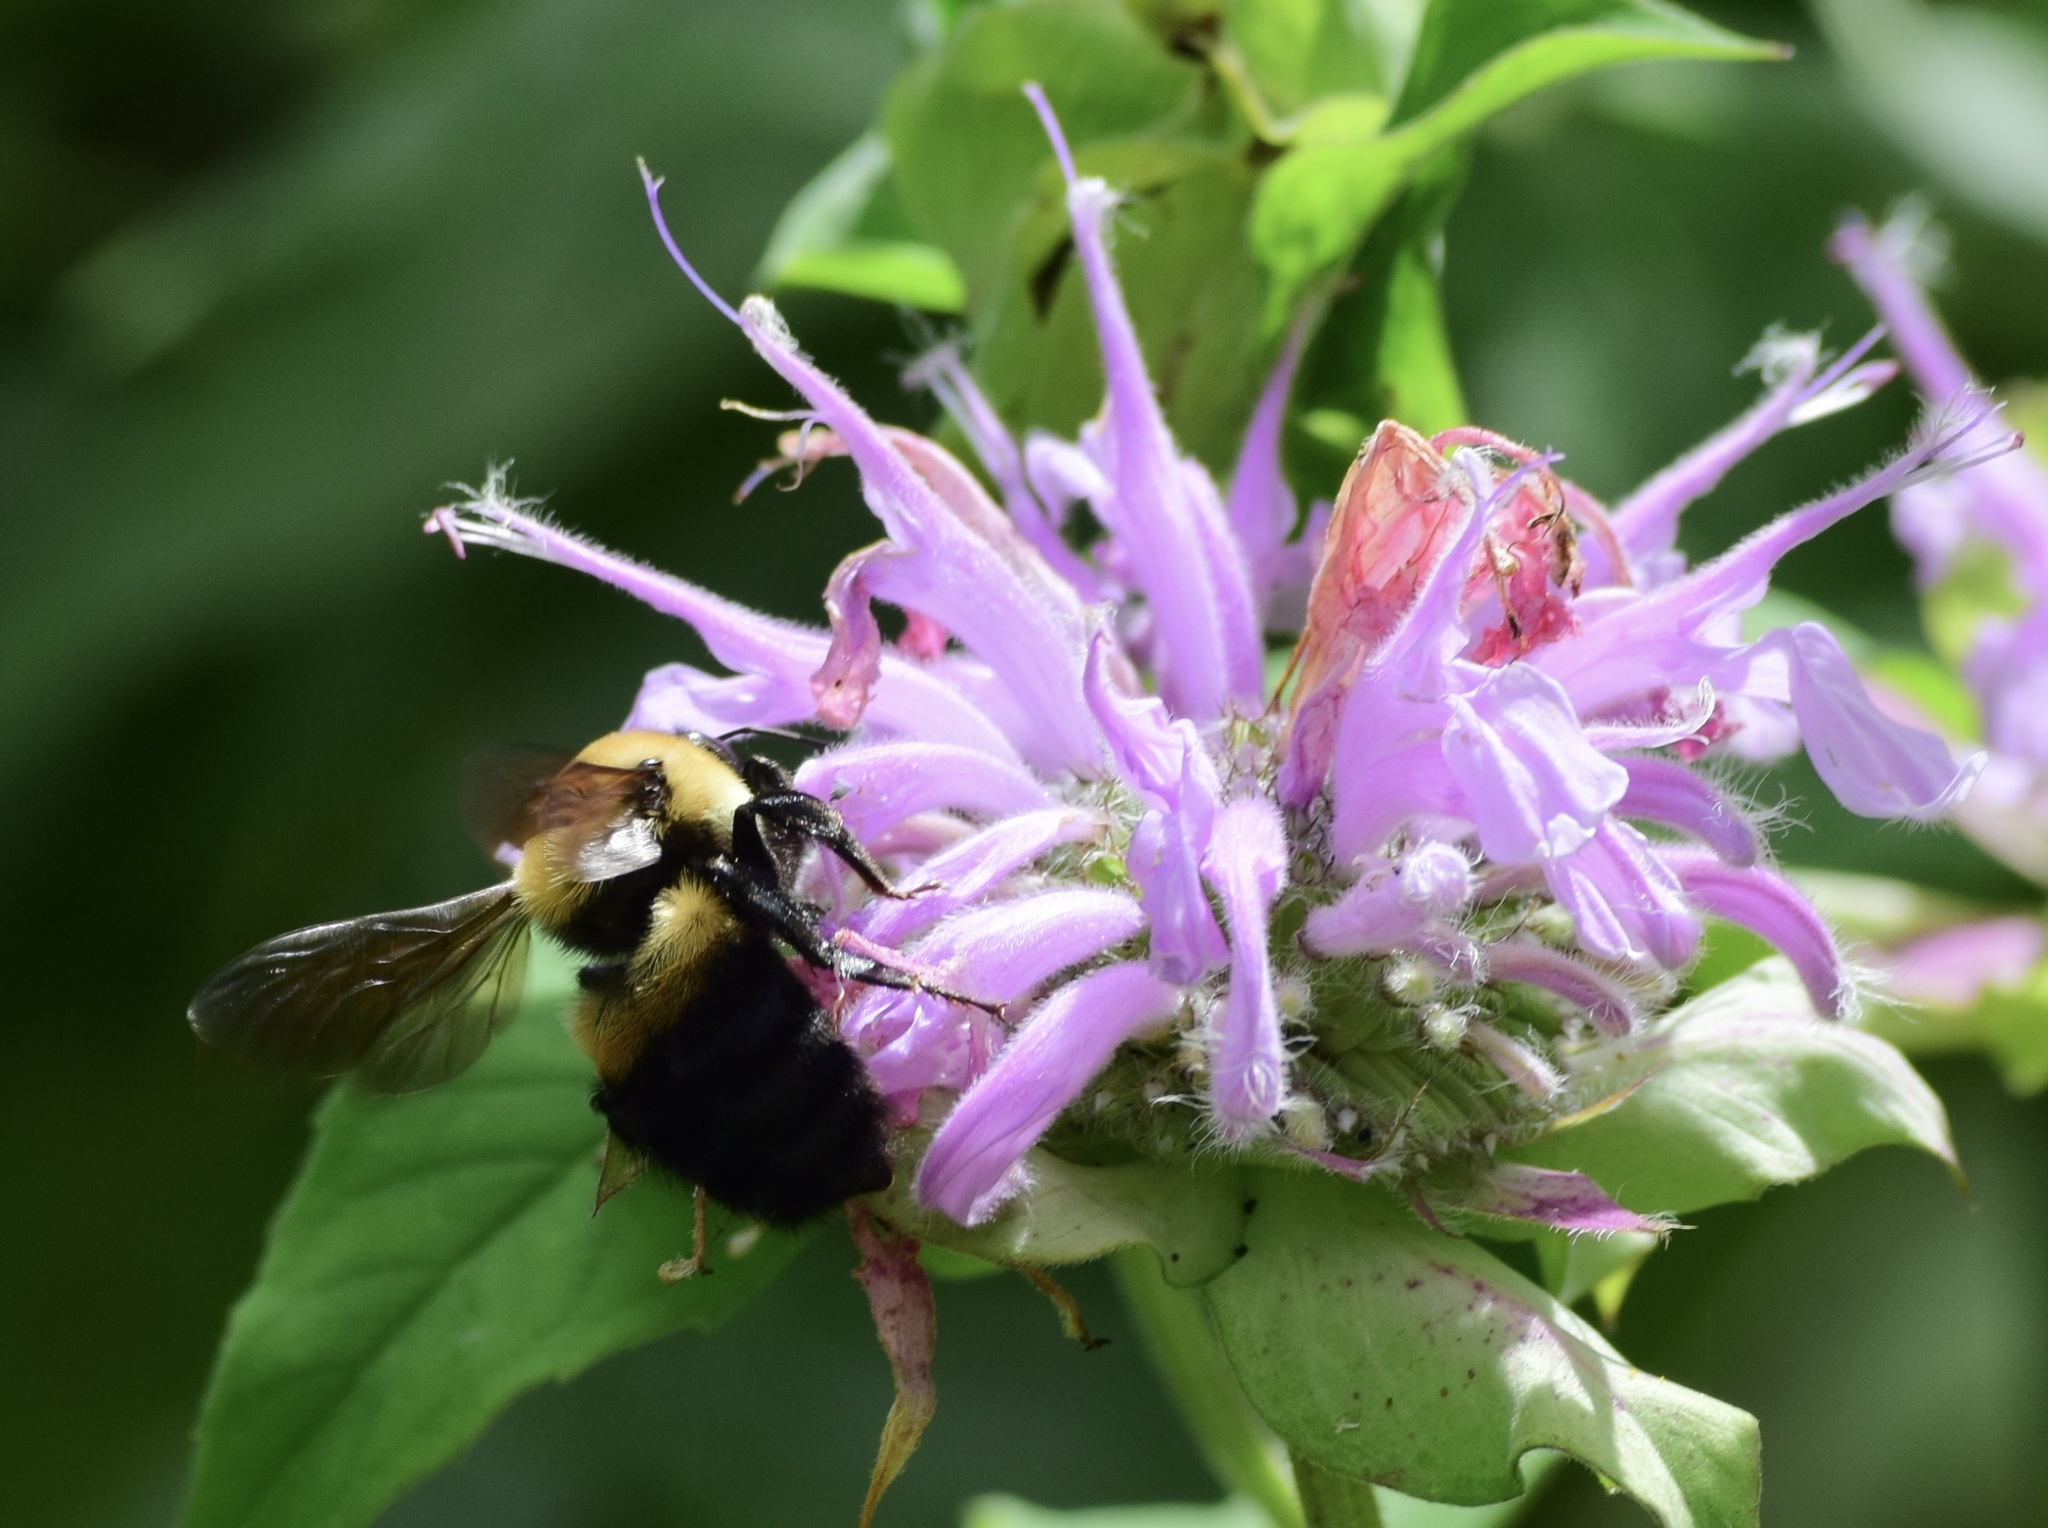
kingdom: Animalia
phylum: Arthropoda
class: Insecta
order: Hymenoptera
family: Apidae
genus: Bombus
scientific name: Bombus griseocollis
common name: Brown-belted bumble bee
